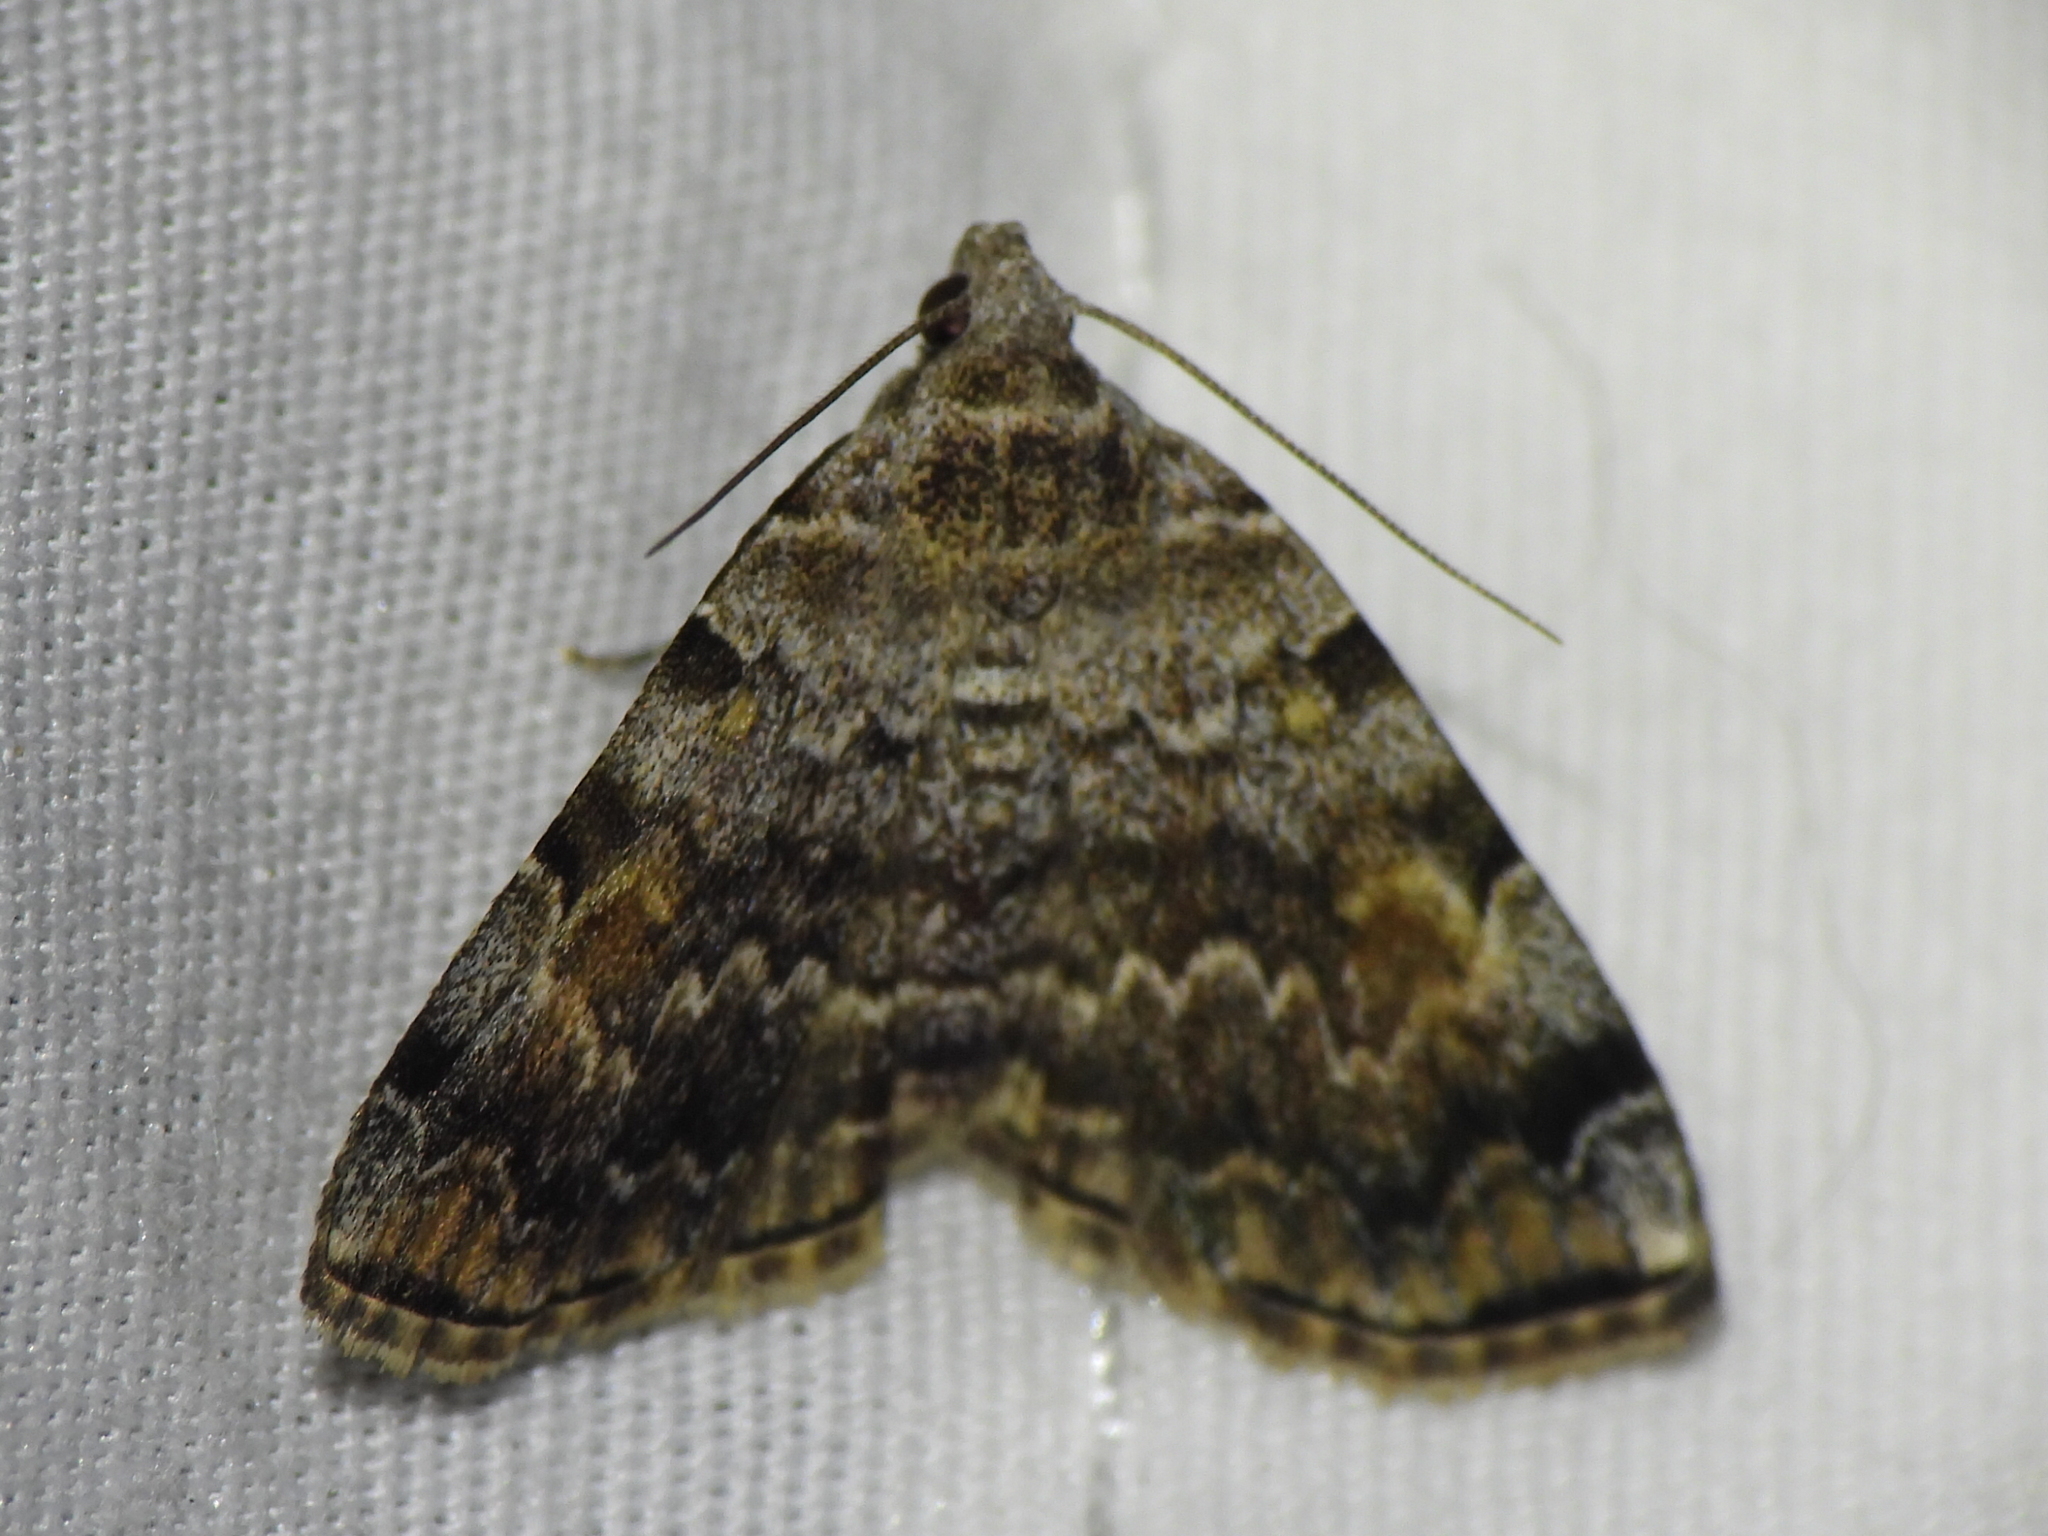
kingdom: Animalia
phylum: Arthropoda
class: Insecta
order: Lepidoptera
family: Erebidae
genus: Idia
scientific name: Idia americalis
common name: American idia moth
